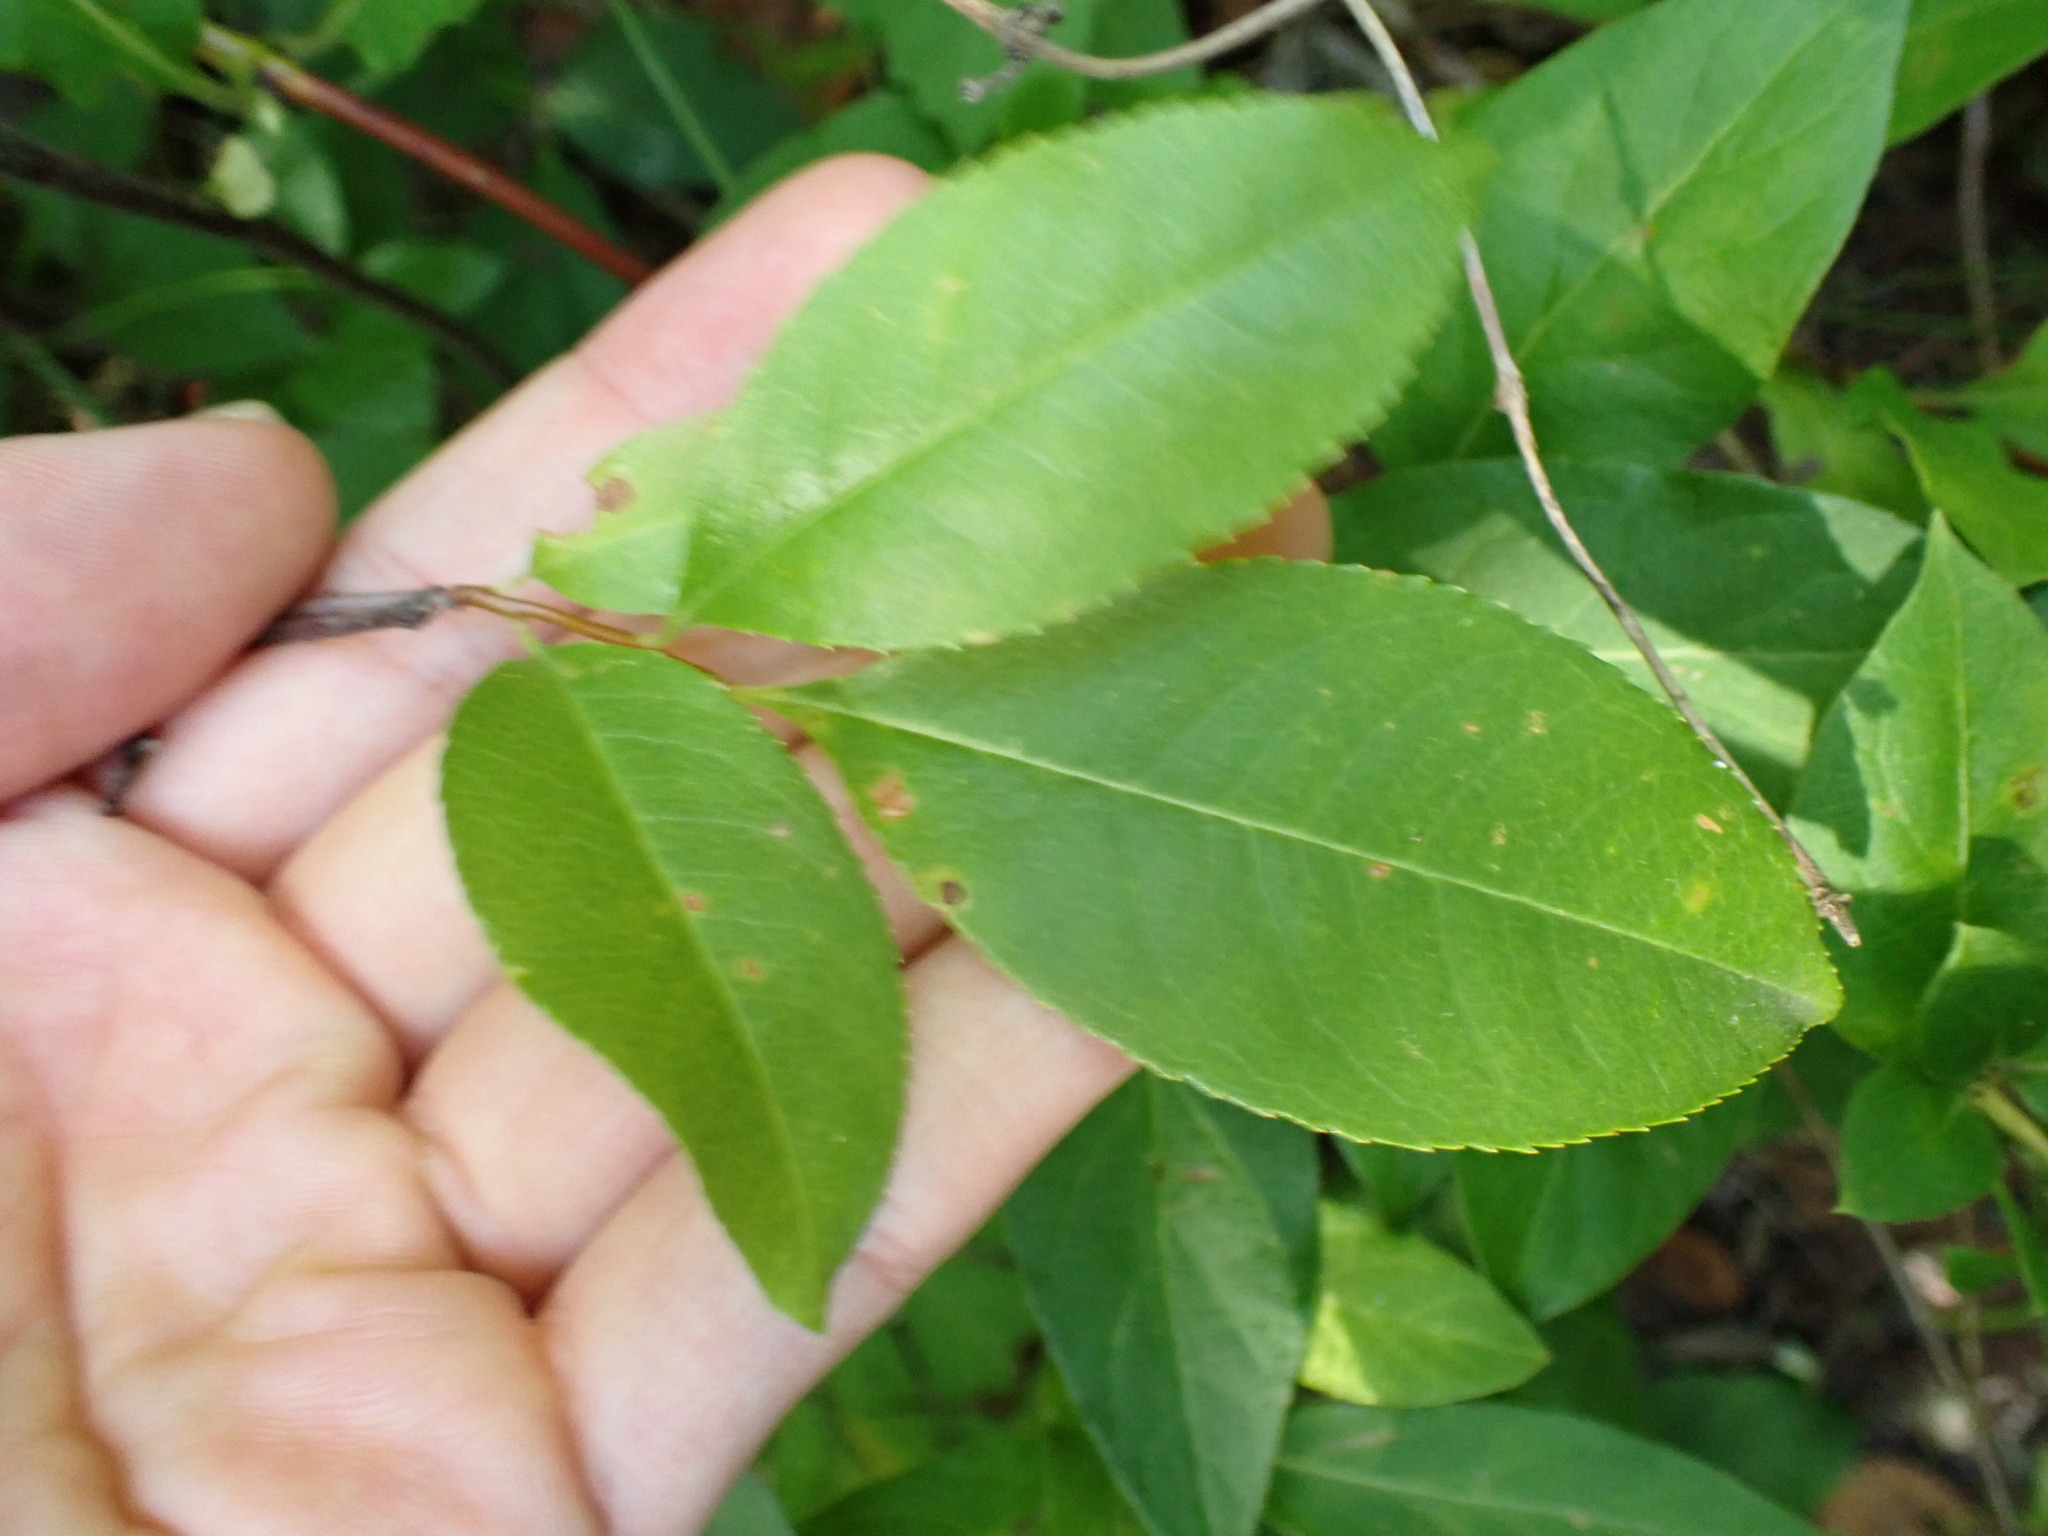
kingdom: Animalia
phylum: Arthropoda
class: Insecta
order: Lepidoptera
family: Nepticulidae
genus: Stigmella
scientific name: Stigmella prunifoliella
